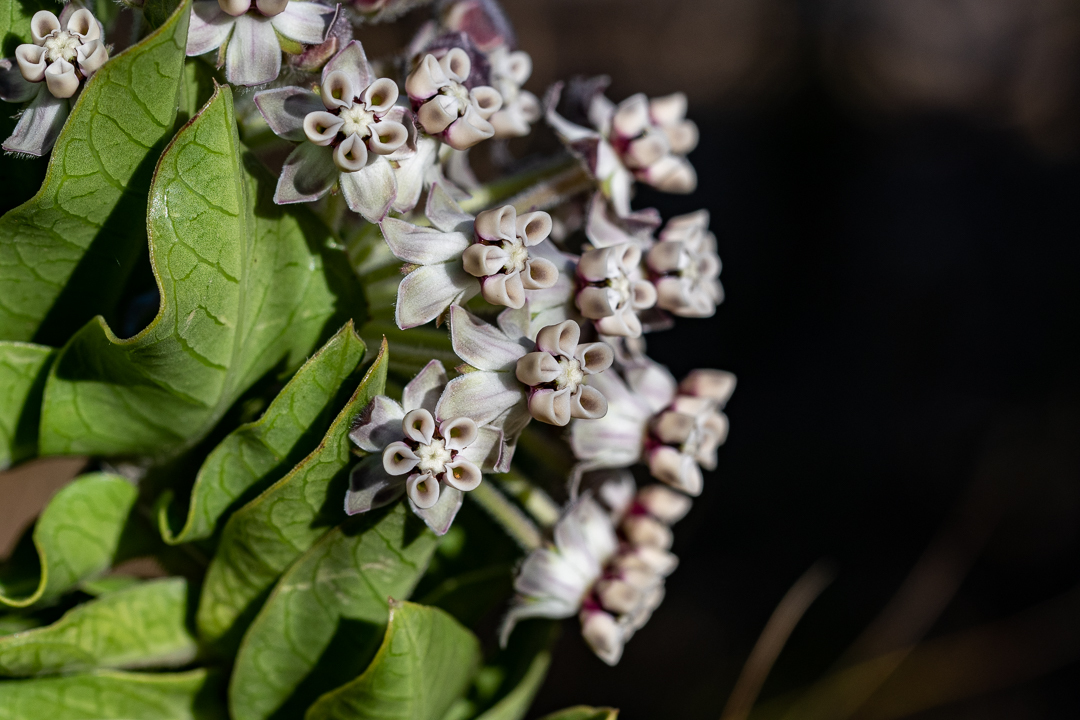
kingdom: Plantae
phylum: Tracheophyta
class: Magnoliopsida
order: Gentianales
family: Apocynaceae
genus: Gomphocarpus
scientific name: Gomphocarpus cancellatus
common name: Wild cotton
